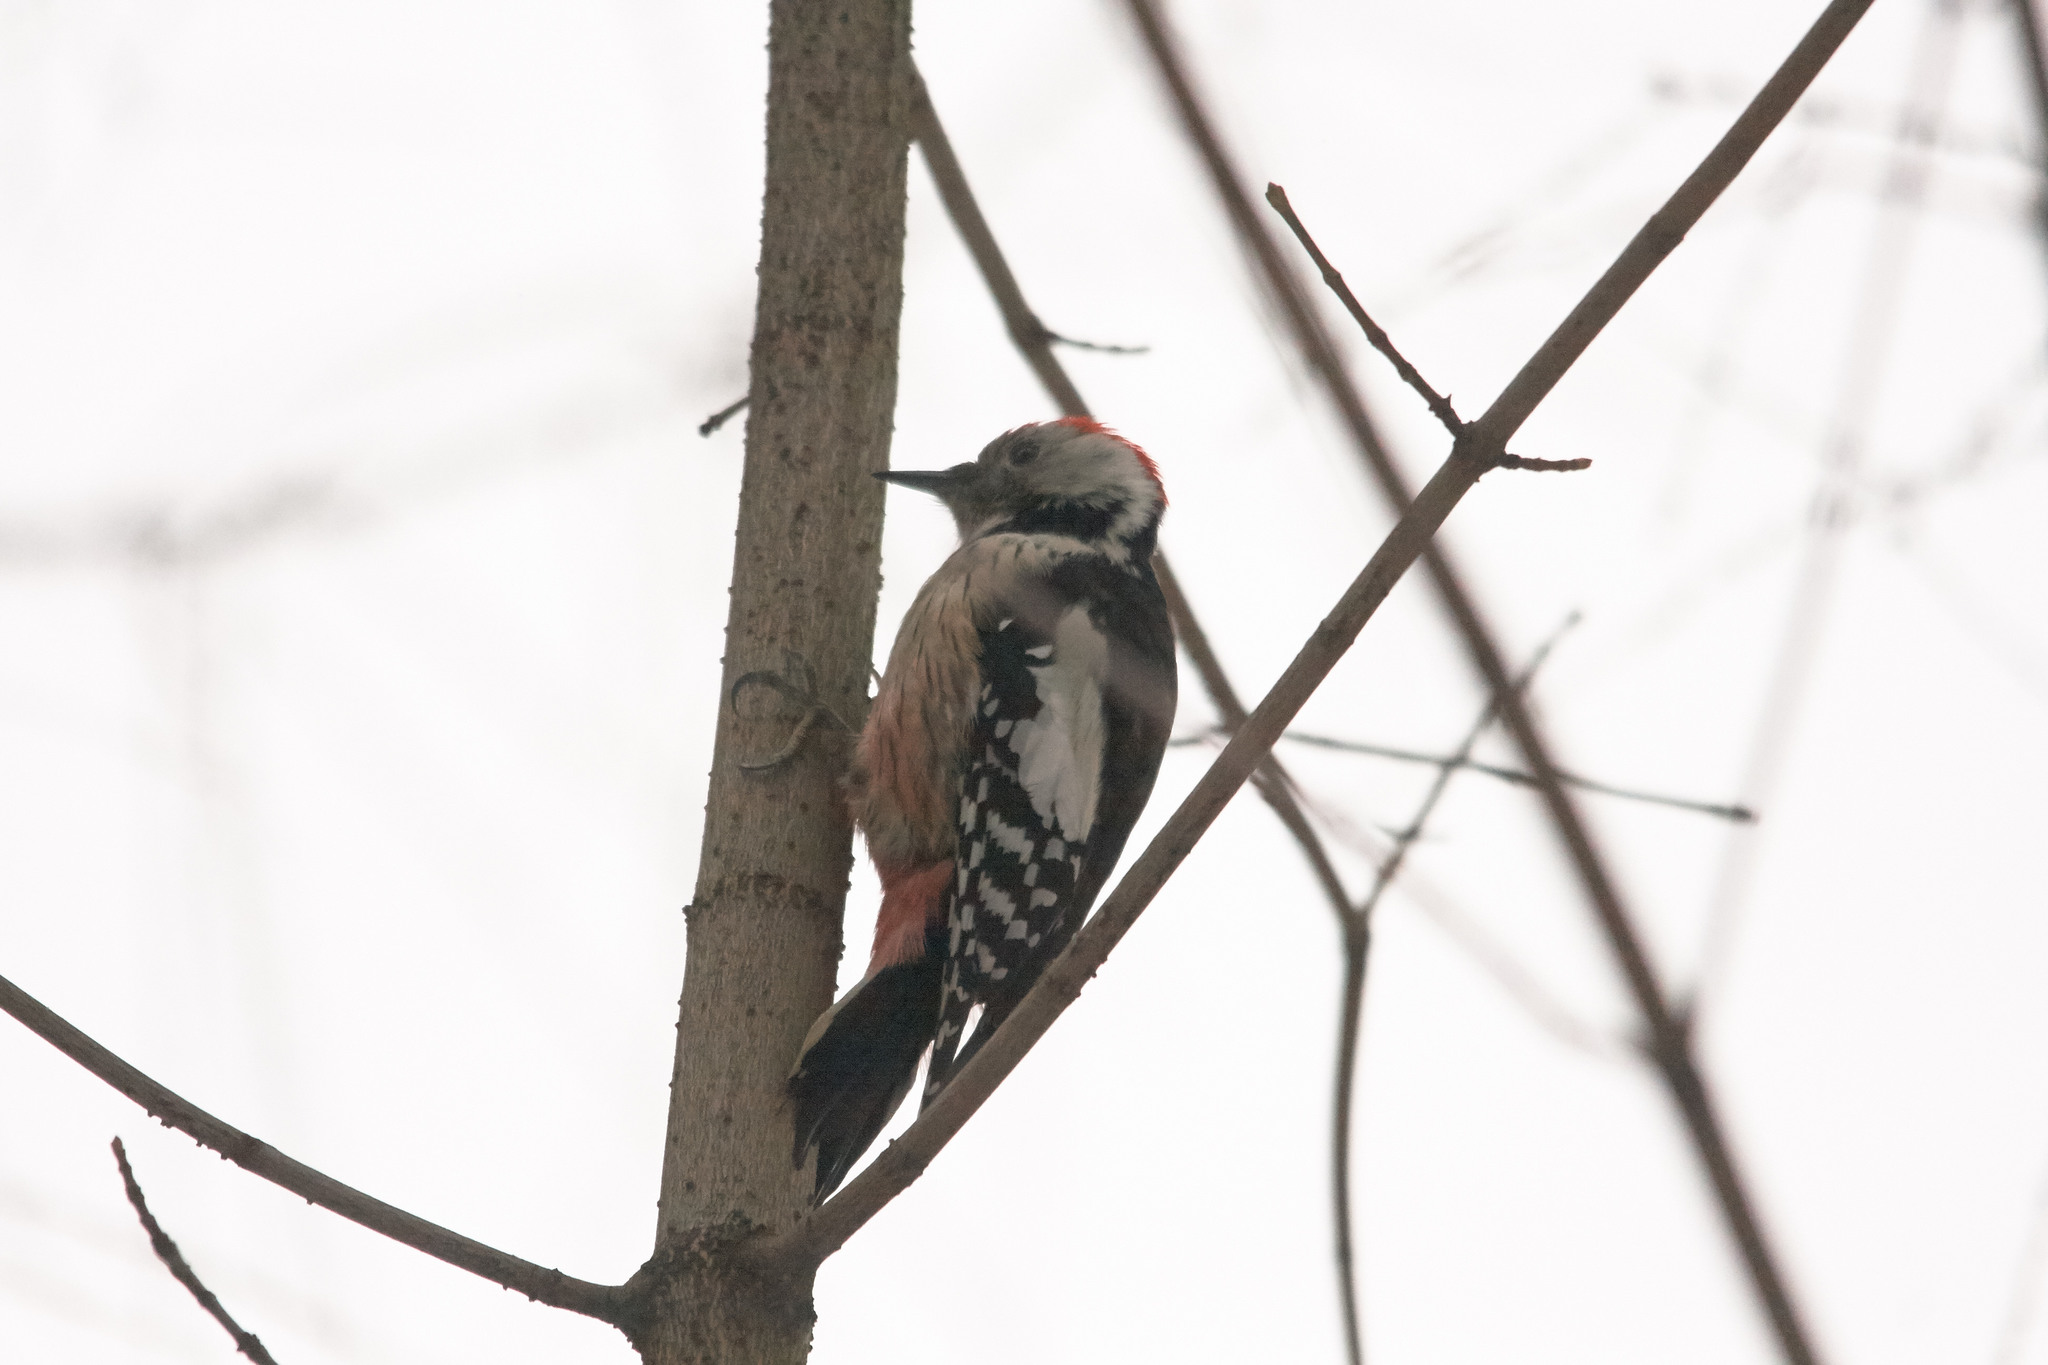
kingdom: Animalia
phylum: Chordata
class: Aves
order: Piciformes
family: Picidae
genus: Dendrocoptes
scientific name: Dendrocoptes medius
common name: Middle spotted woodpecker
